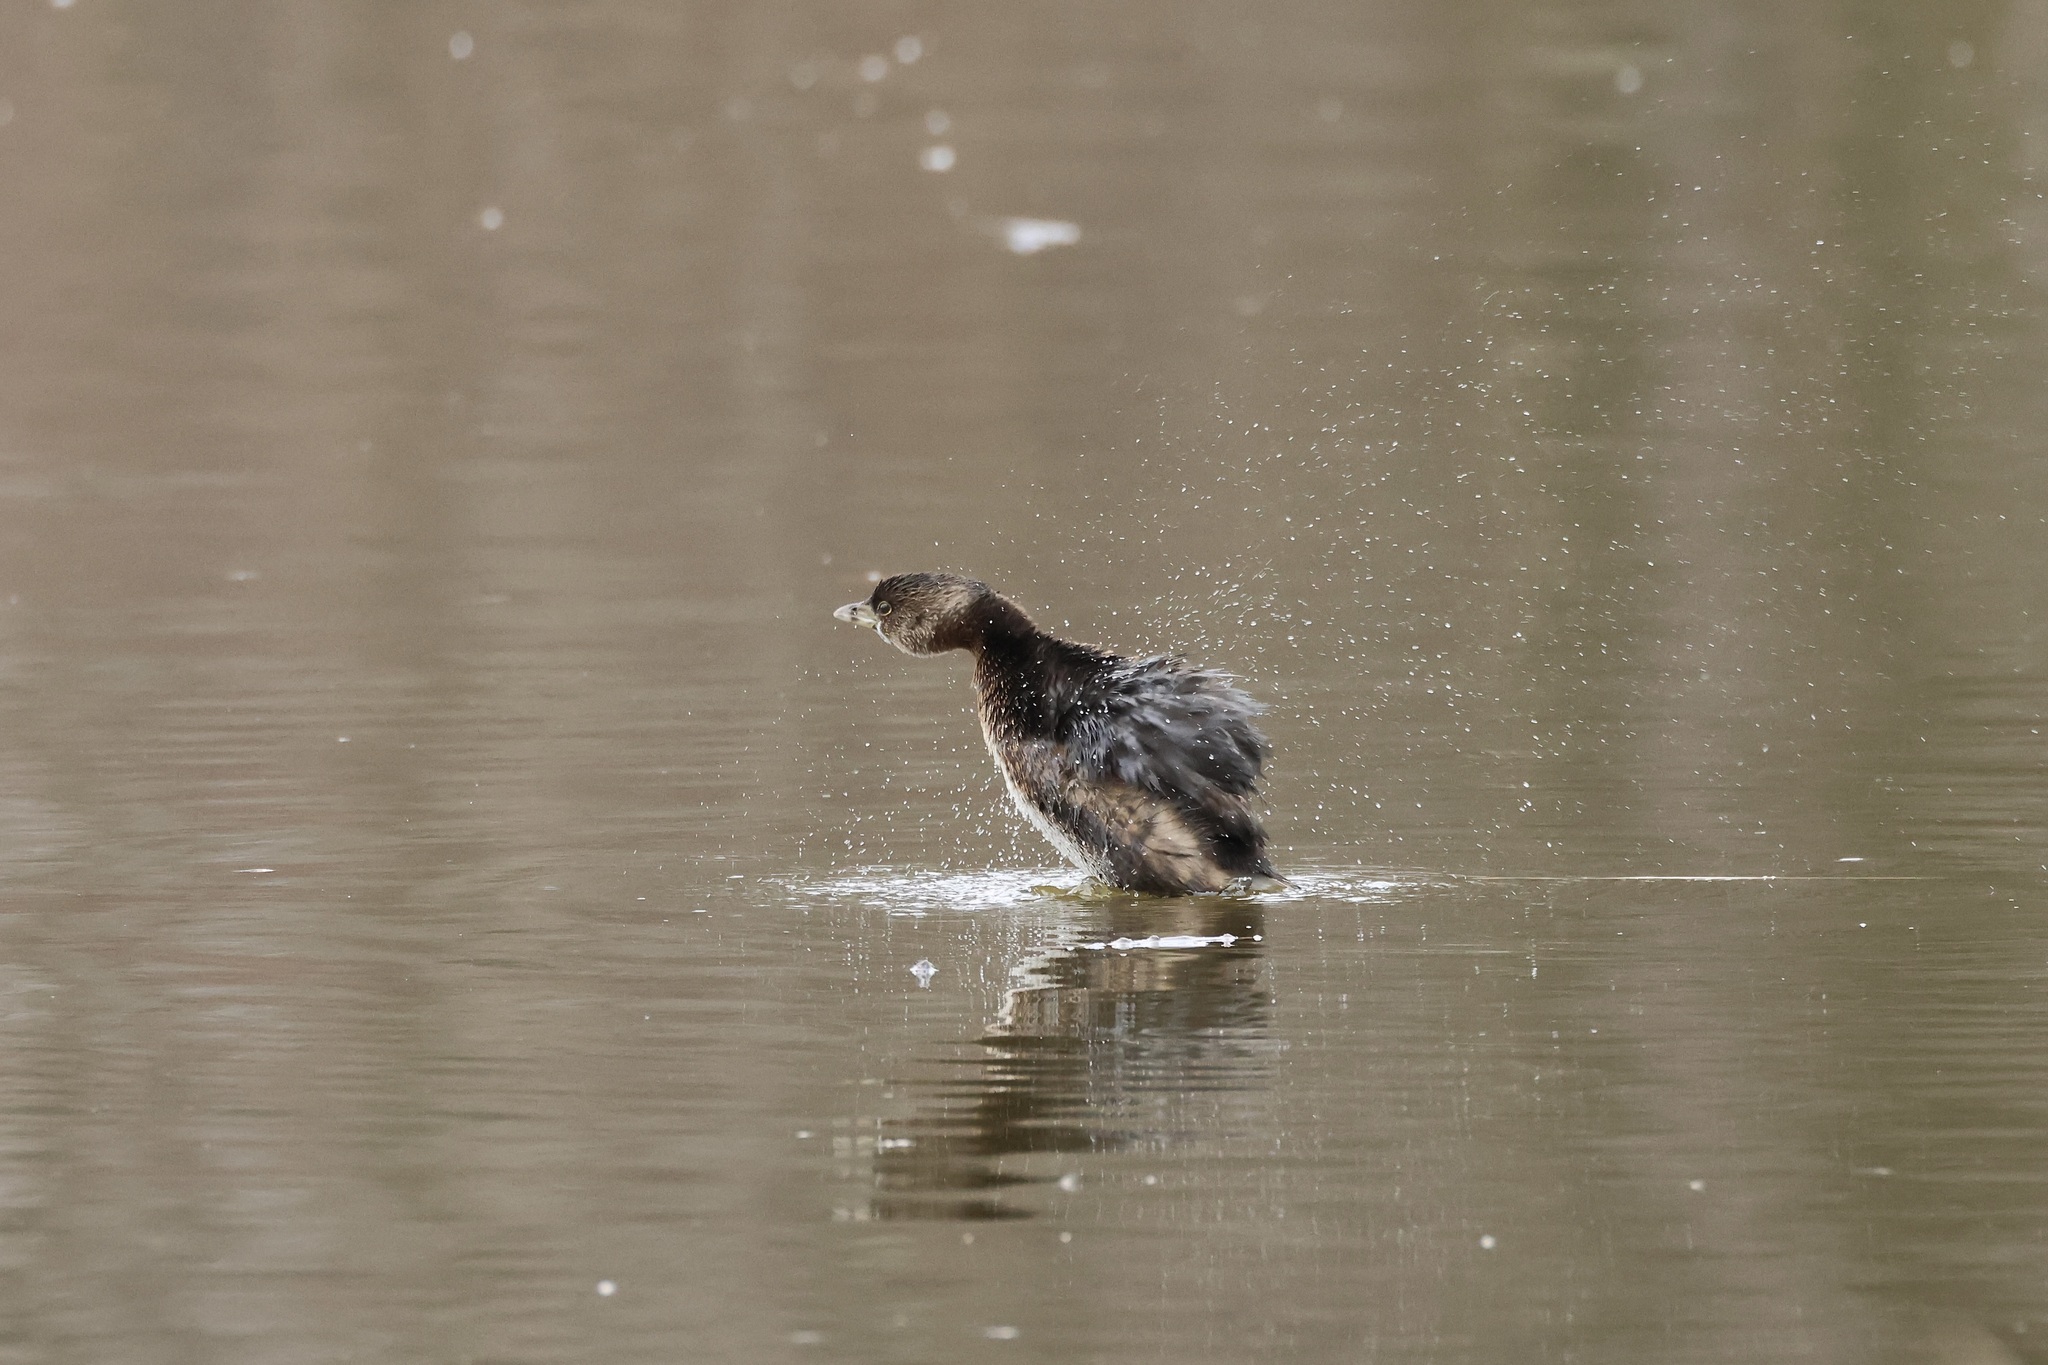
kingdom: Animalia
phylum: Chordata
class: Aves
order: Podicipediformes
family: Podicipedidae
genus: Podilymbus
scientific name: Podilymbus podiceps
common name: Pied-billed grebe
